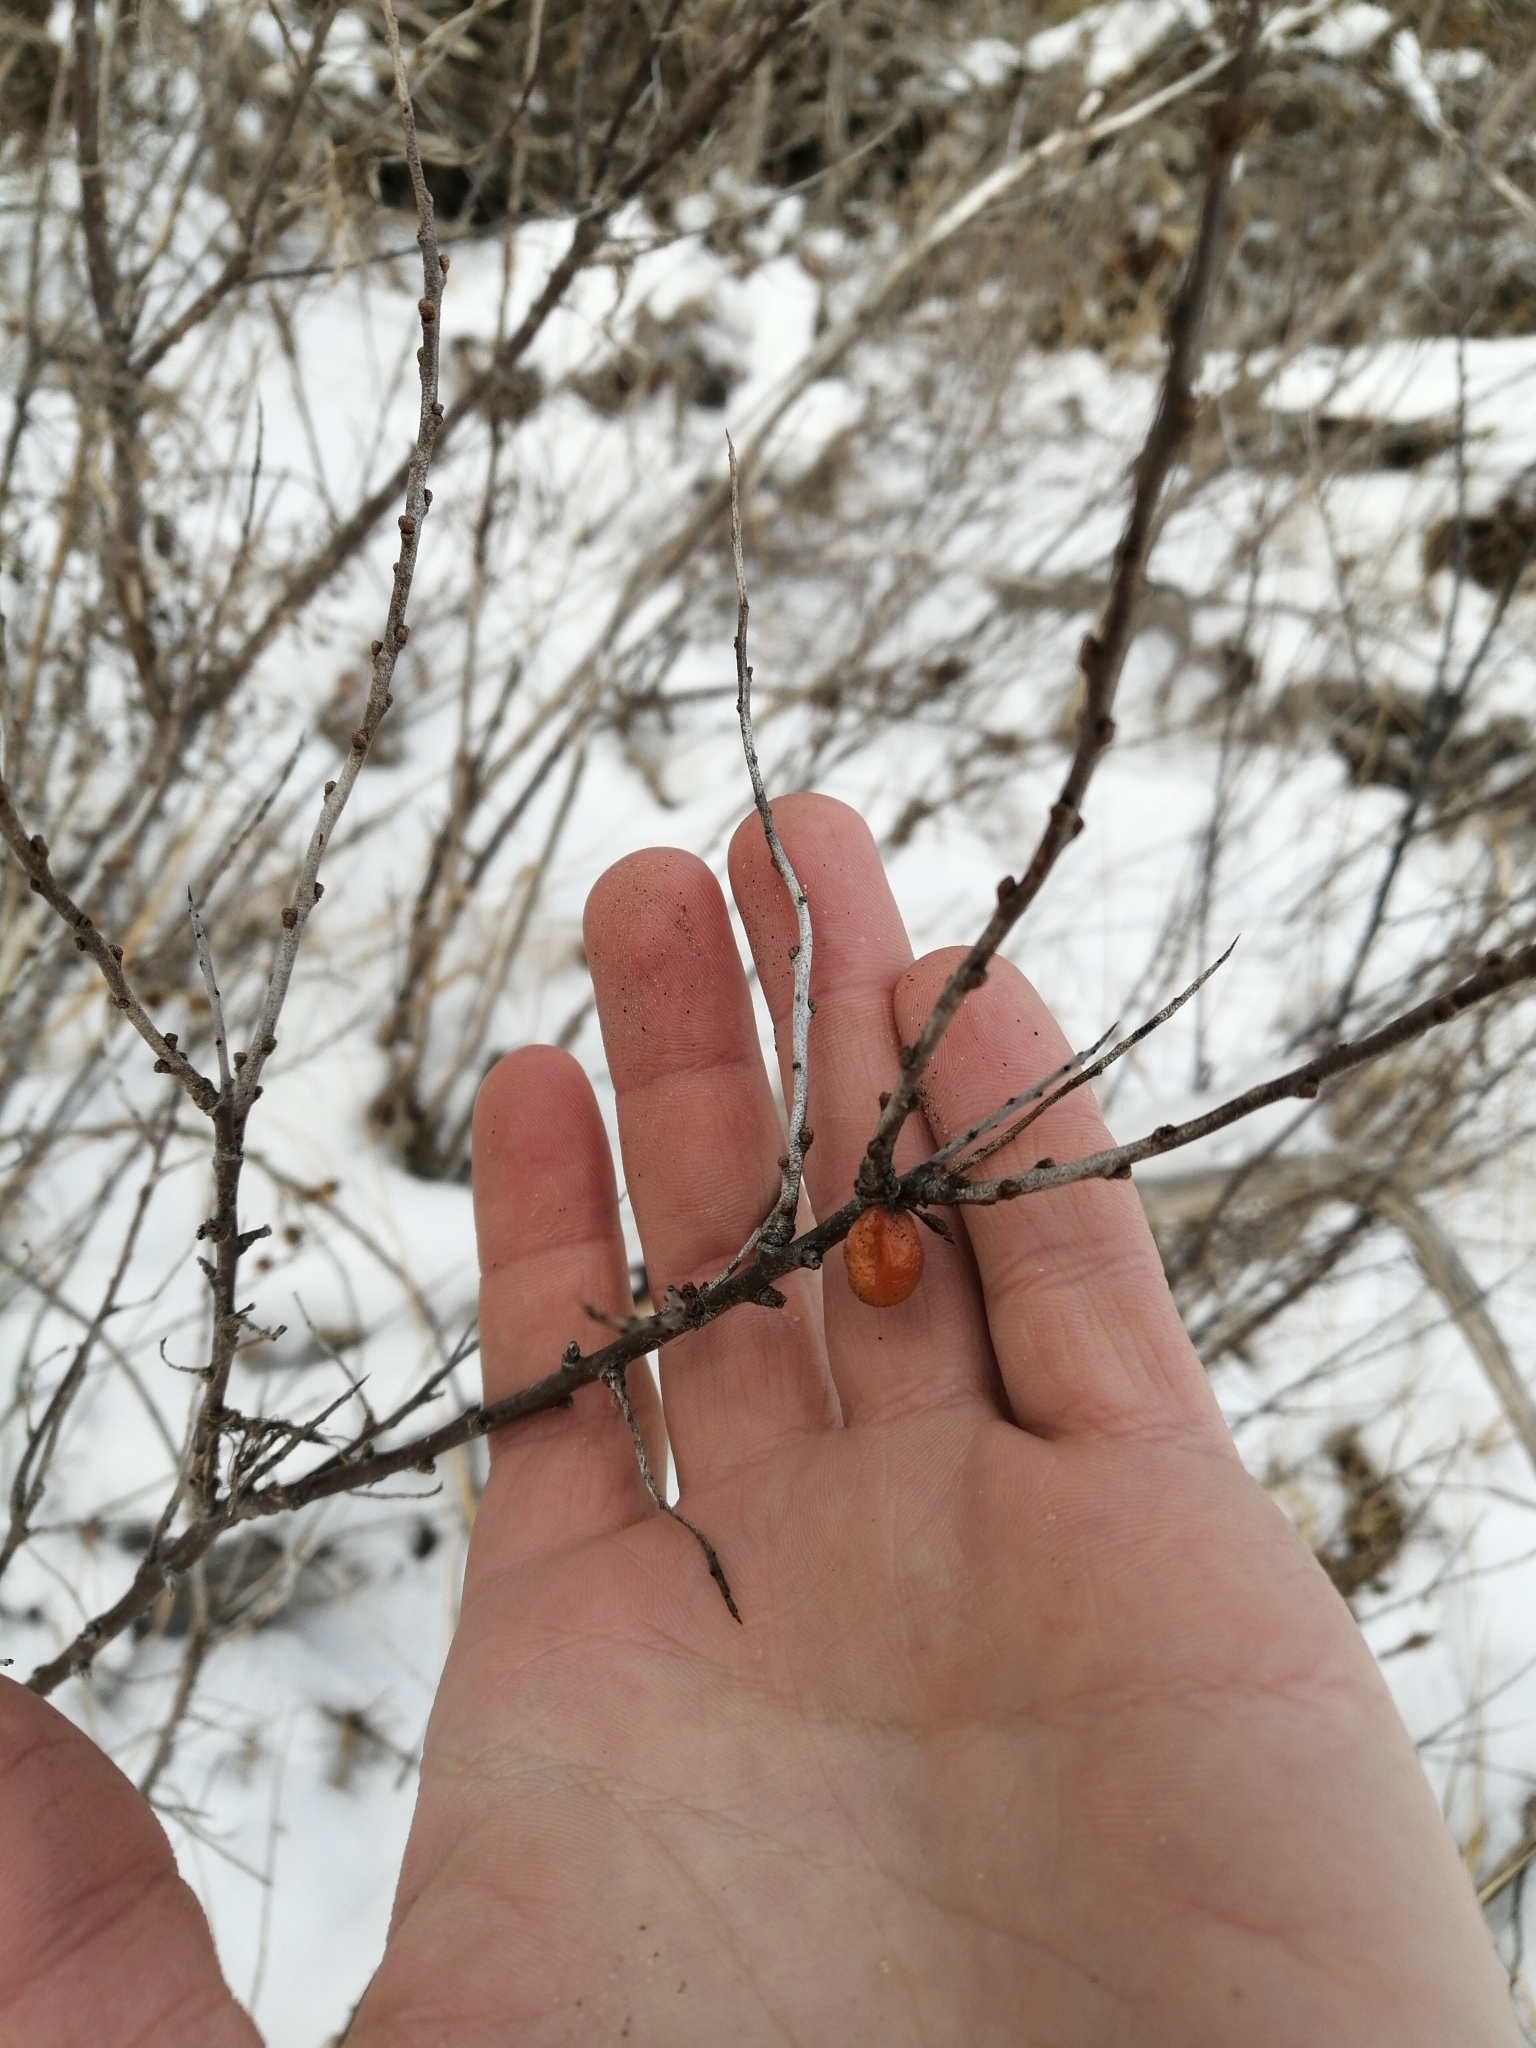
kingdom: Plantae
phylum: Tracheophyta
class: Magnoliopsida
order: Rosales
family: Elaeagnaceae
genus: Hippophae
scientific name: Hippophae rhamnoides
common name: Sea-buckthorn
